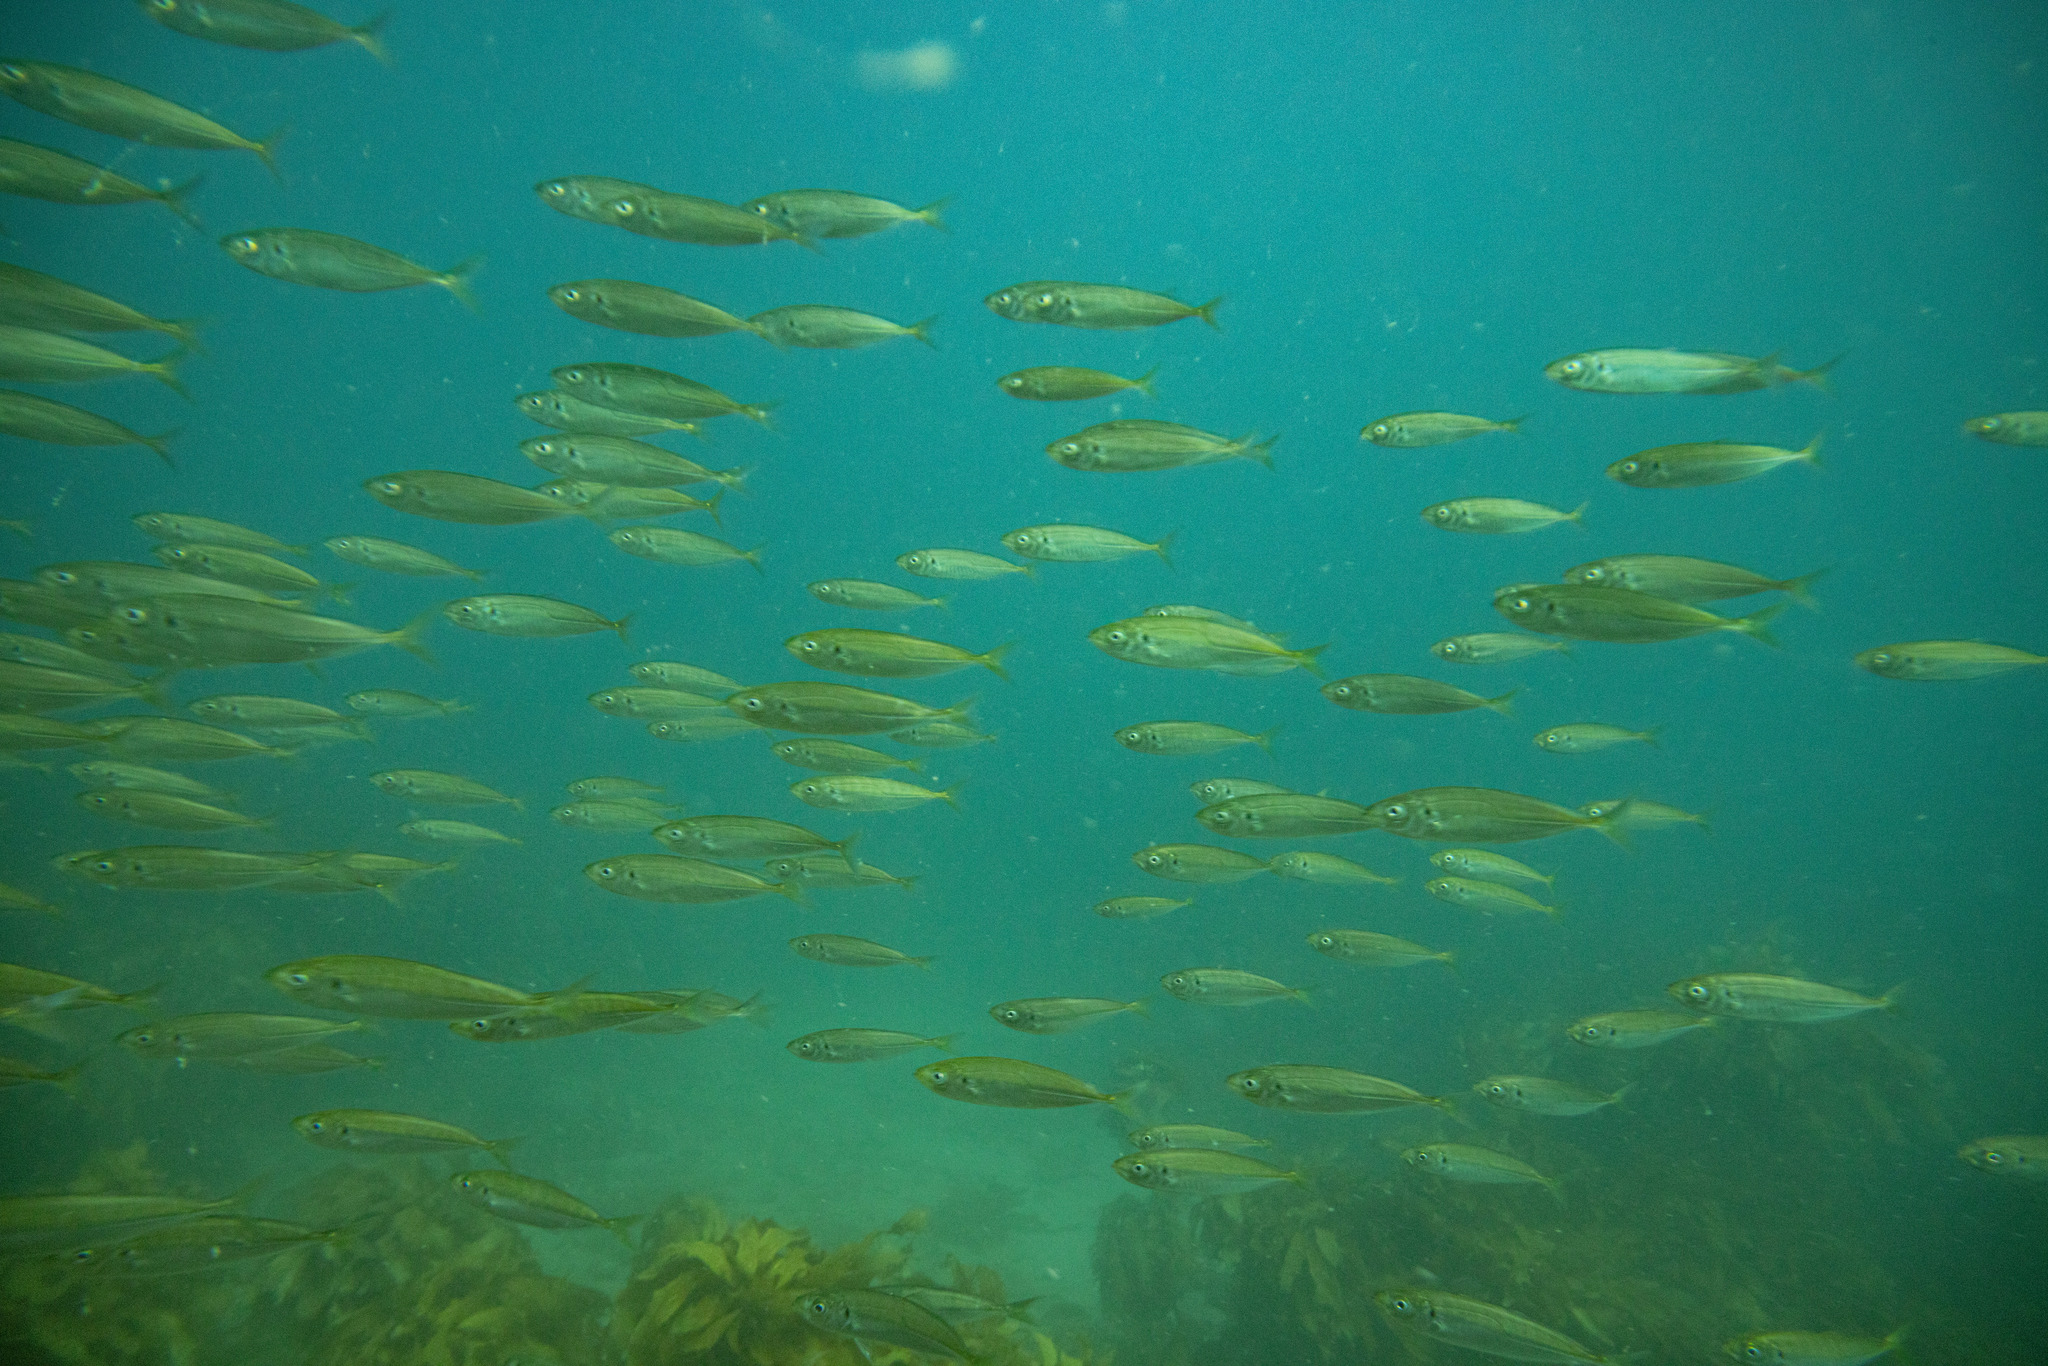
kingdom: Animalia
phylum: Chordata
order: Perciformes
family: Carangidae
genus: Trachurus
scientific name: Trachurus novaezelandiae
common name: Yellowtail horse mackerel
